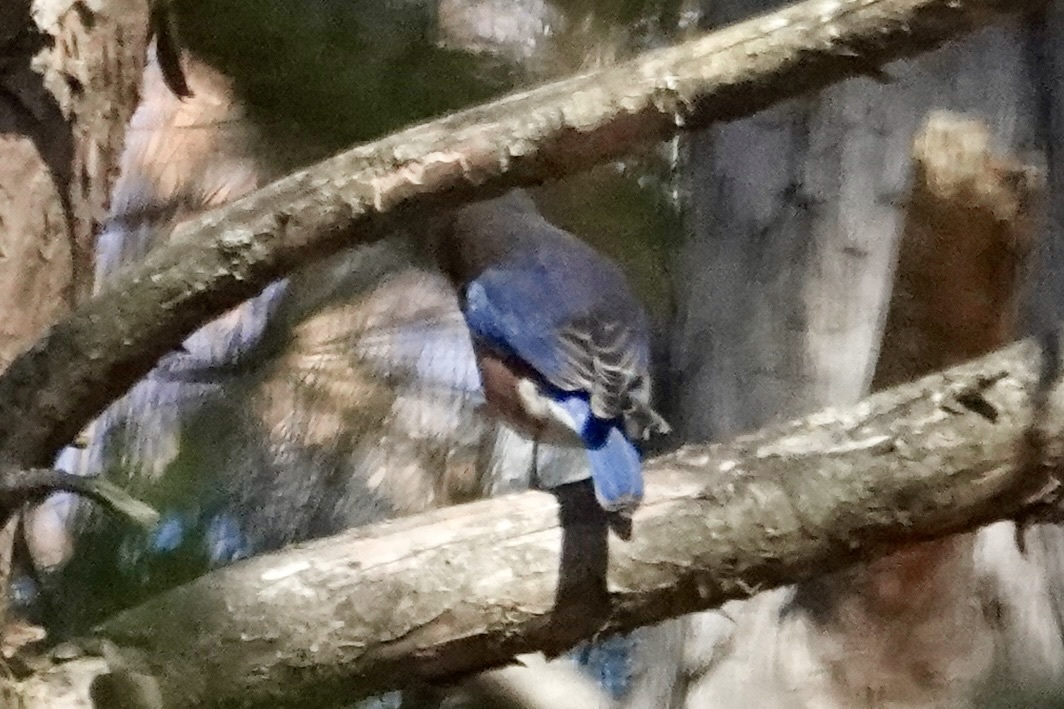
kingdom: Animalia
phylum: Chordata
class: Aves
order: Passeriformes
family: Turdidae
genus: Sialia
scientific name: Sialia sialis
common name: Eastern bluebird
